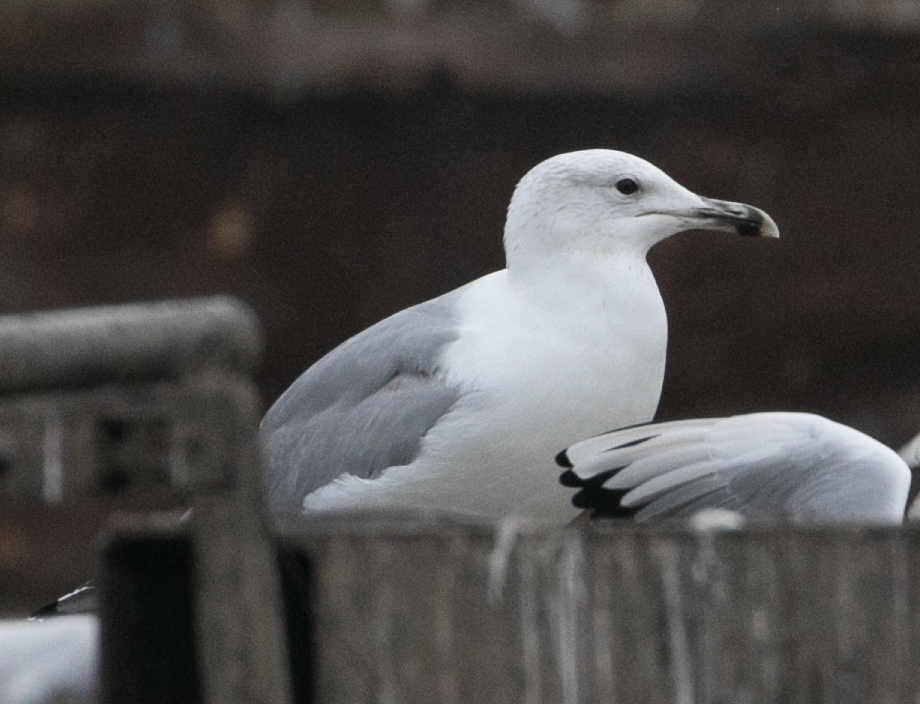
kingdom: Animalia
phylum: Chordata
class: Aves
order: Charadriiformes
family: Laridae
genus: Larus
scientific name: Larus cachinnans
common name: Caspian gull
